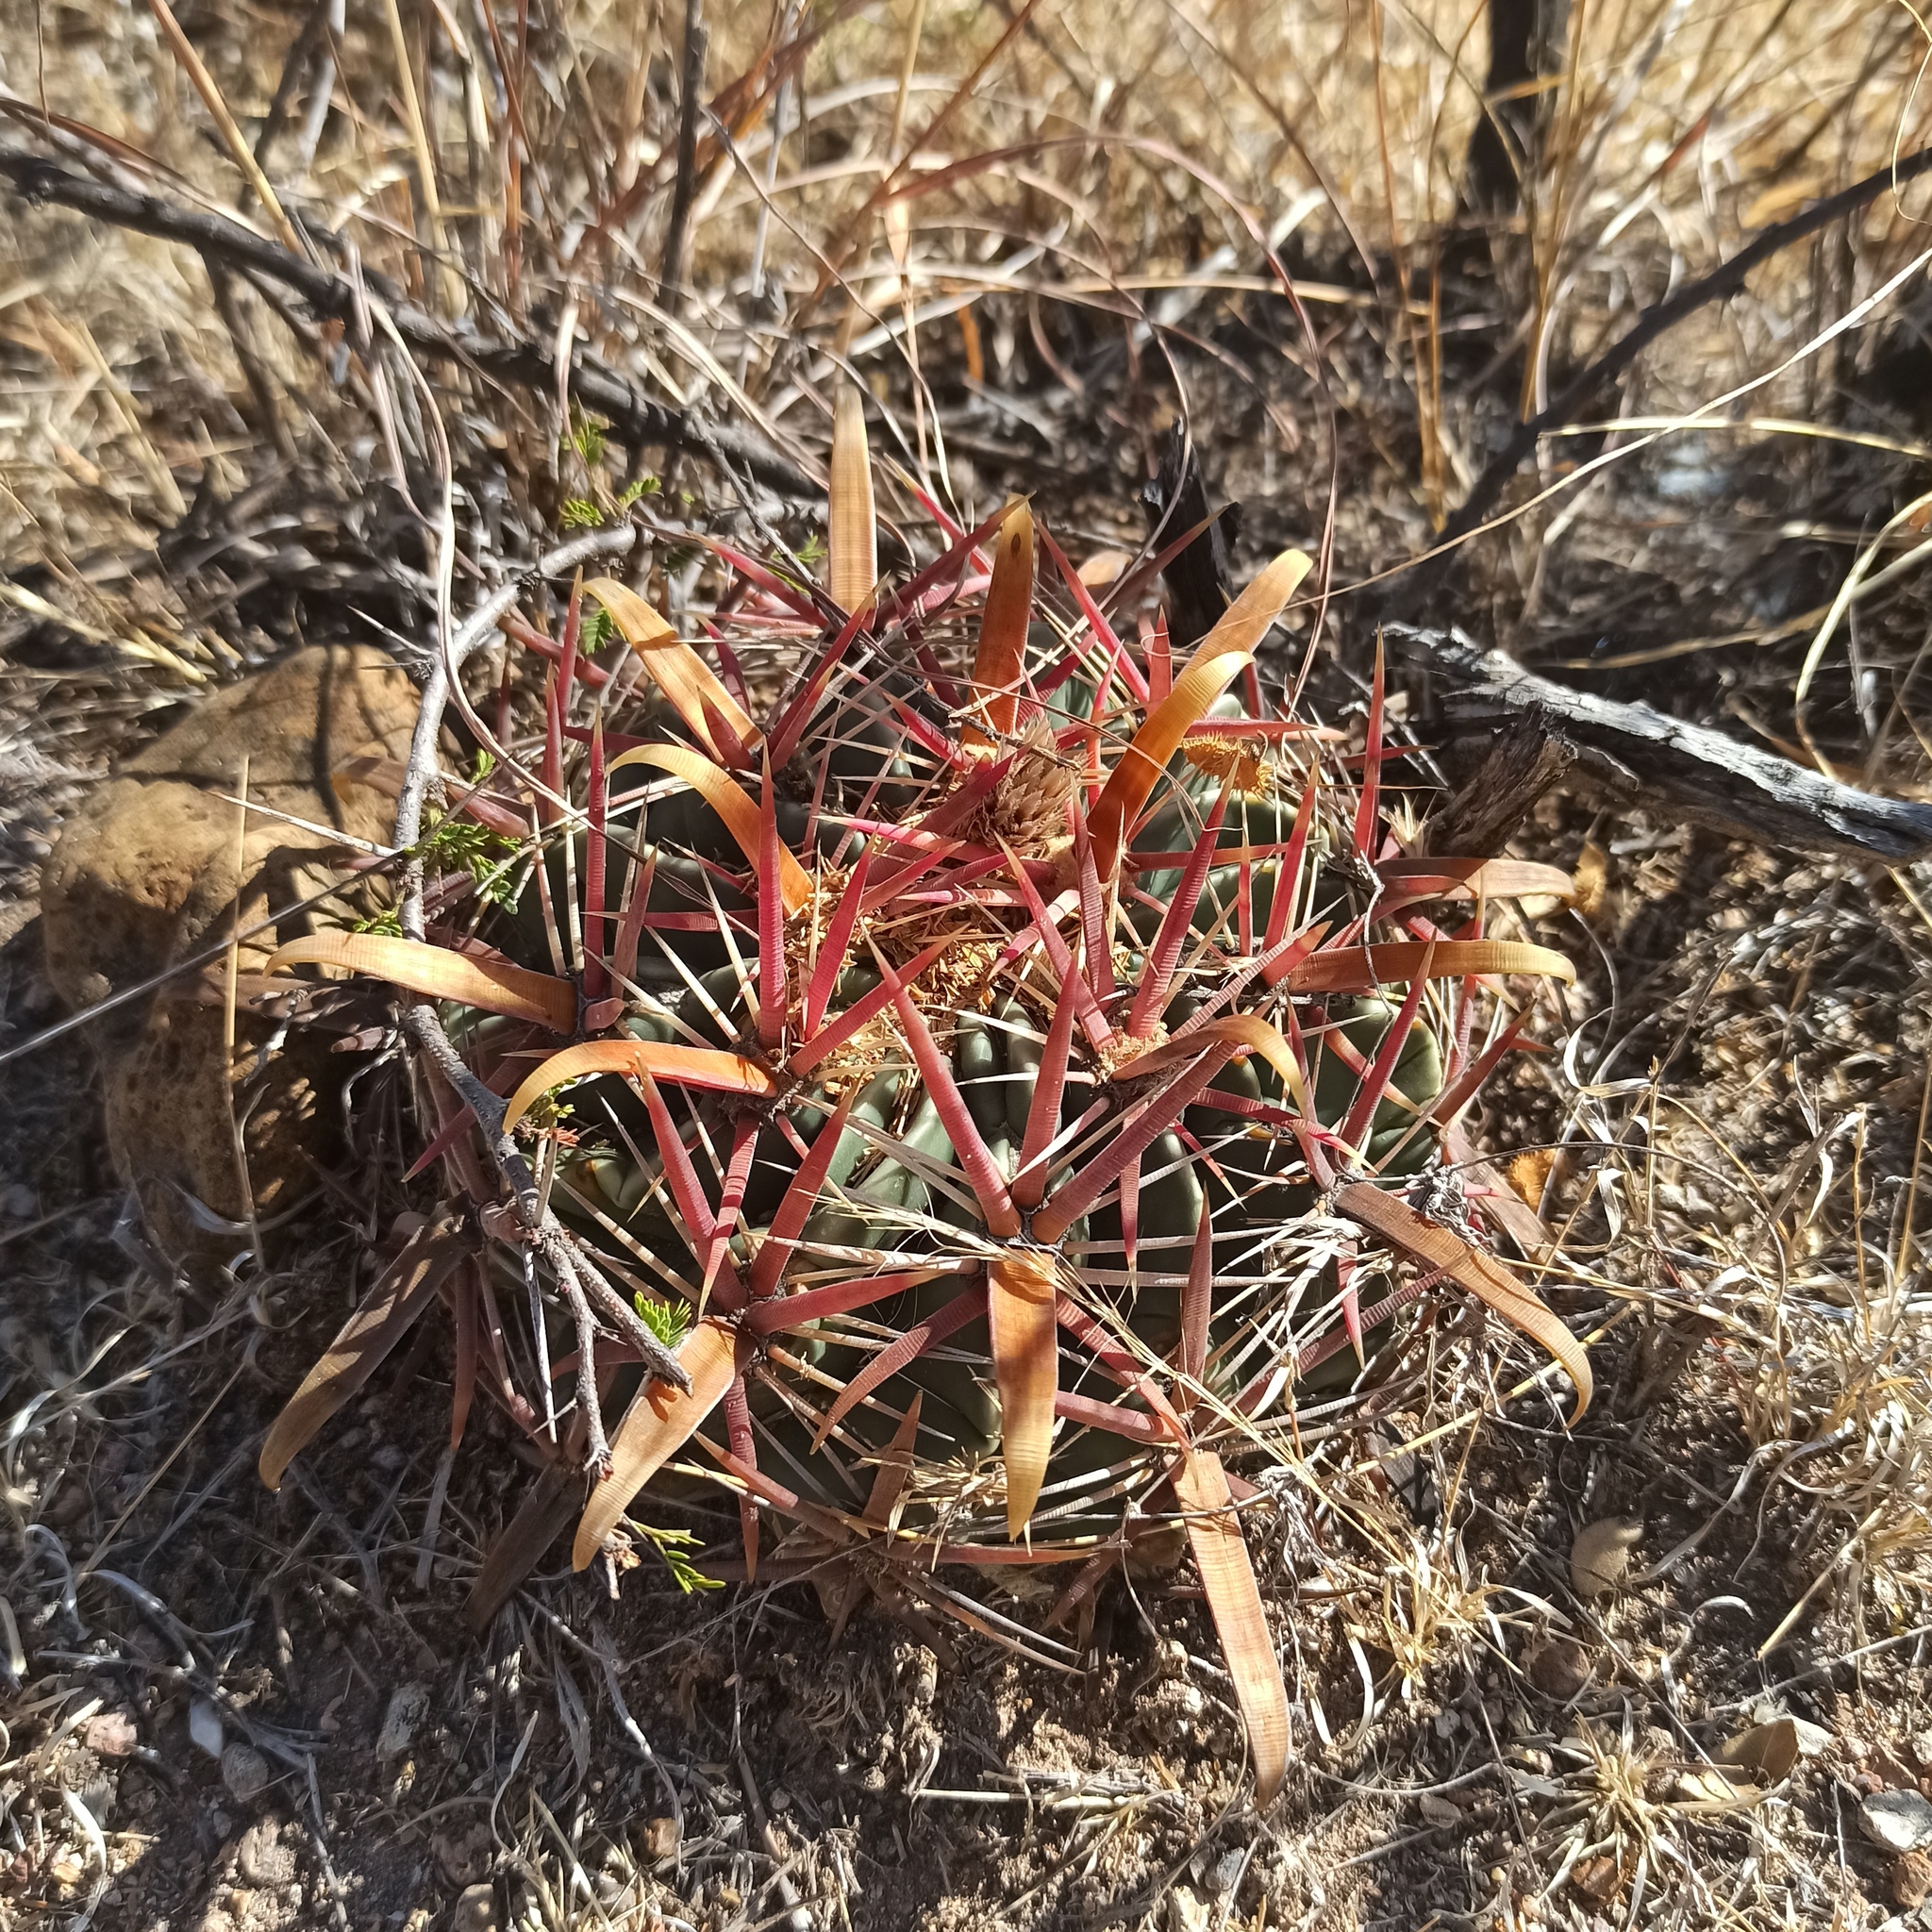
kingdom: Plantae
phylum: Tracheophyta
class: Magnoliopsida
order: Caryophyllales
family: Cactaceae
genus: Ferocactus
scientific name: Ferocactus latispinus
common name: Devil's-tongue cactus
